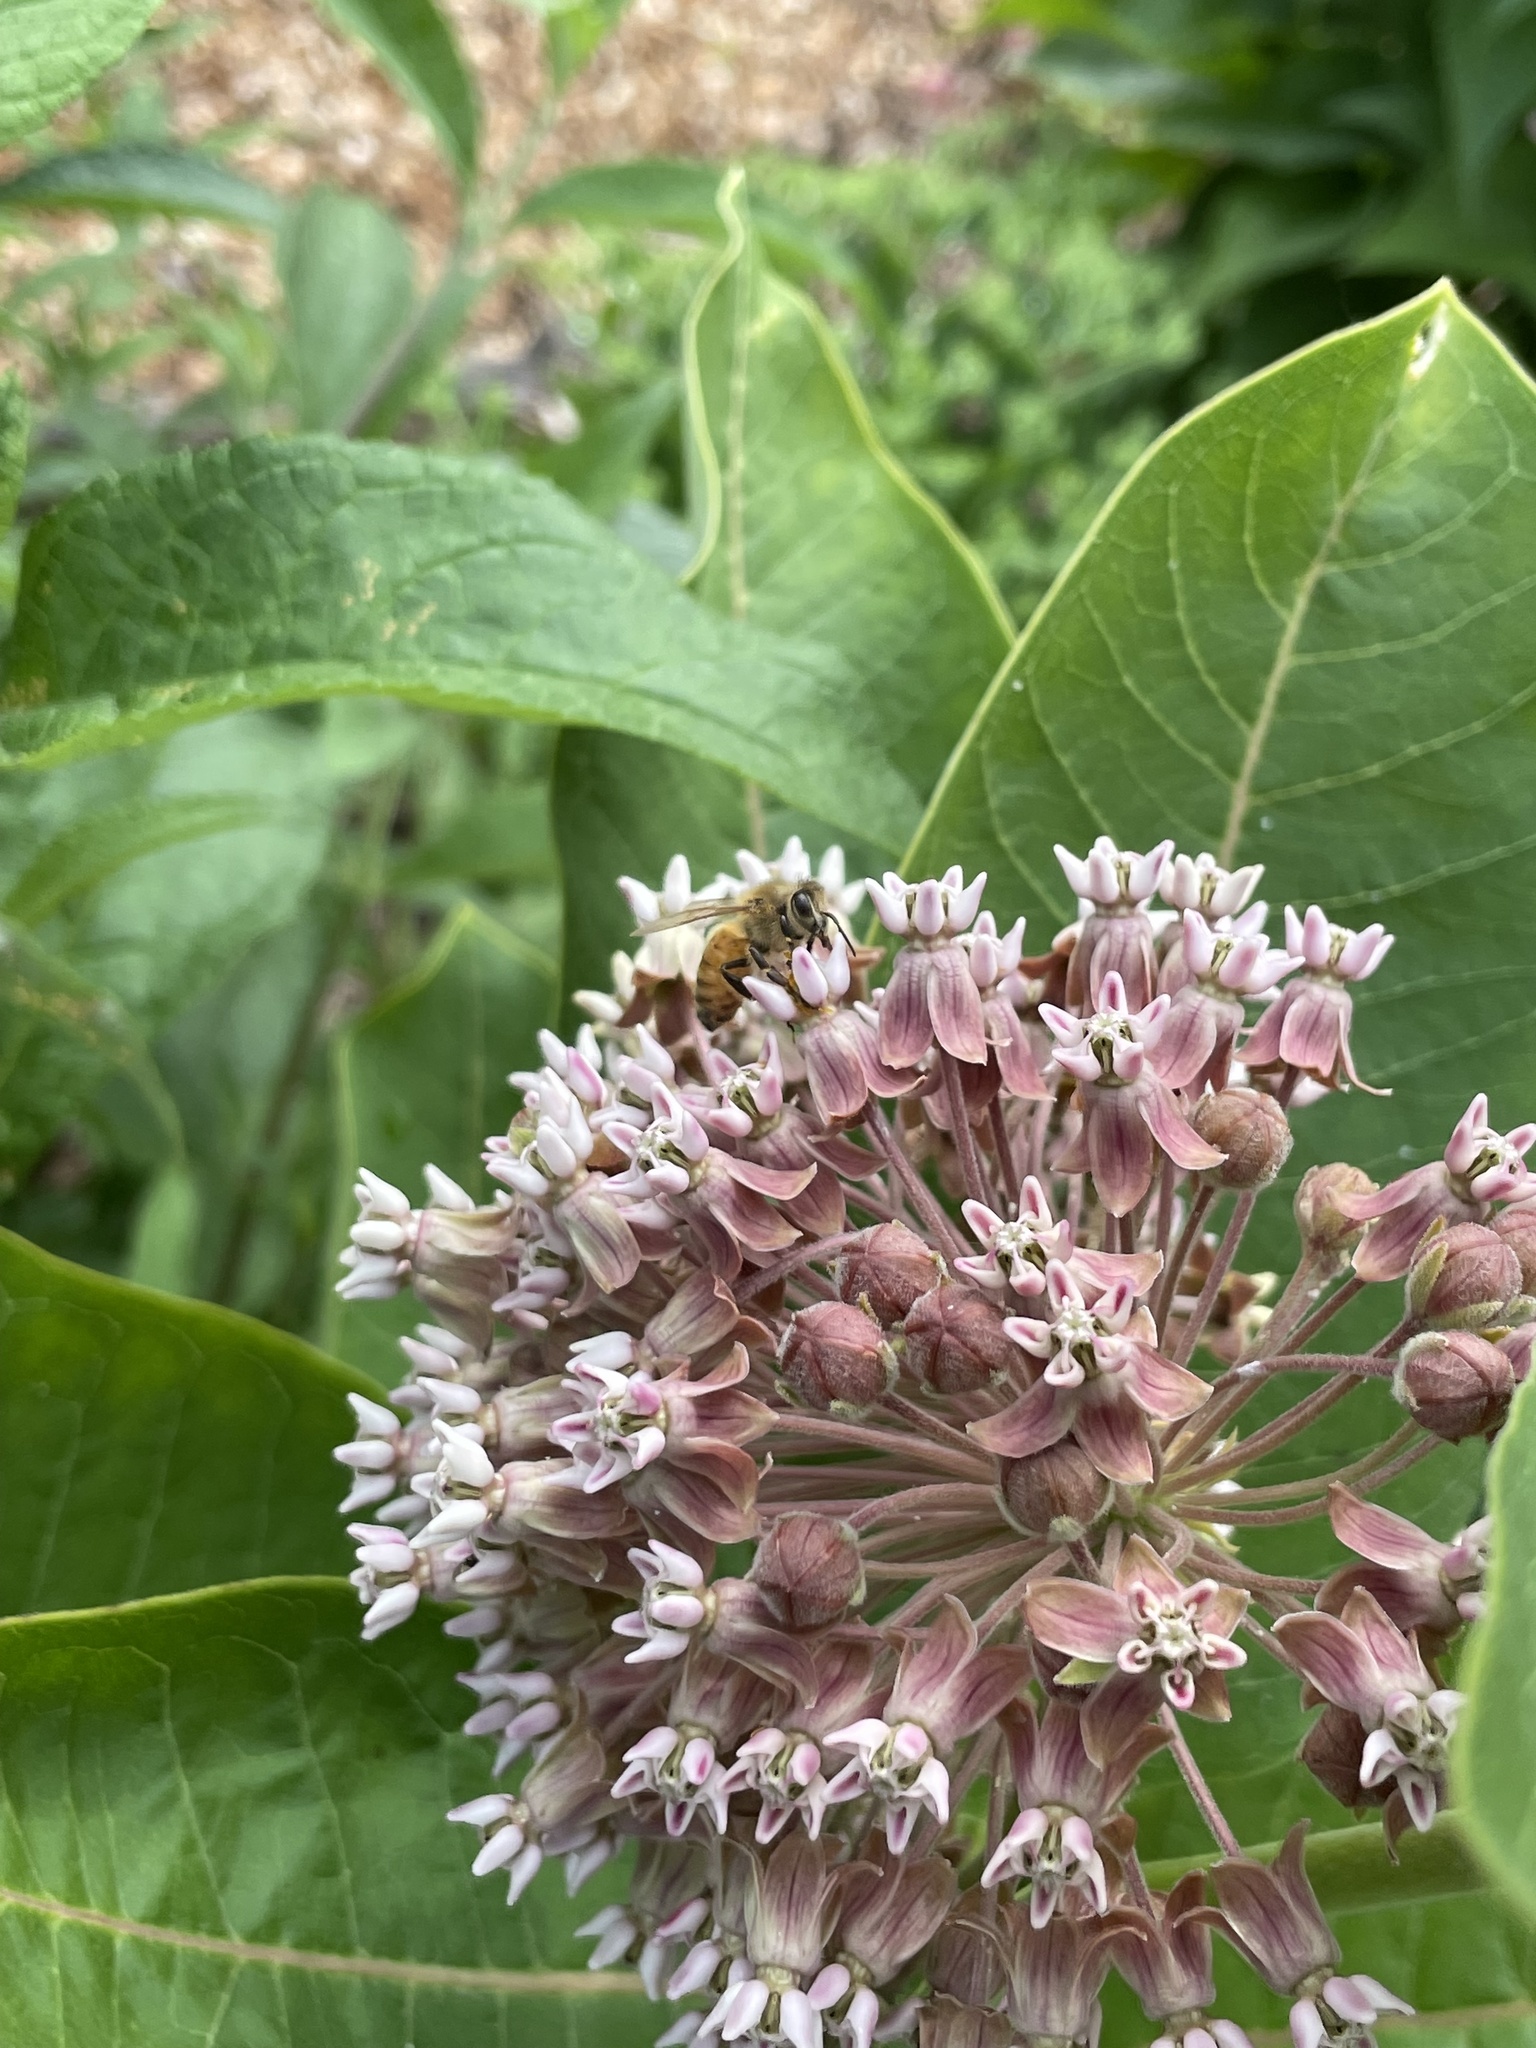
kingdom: Animalia
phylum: Arthropoda
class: Insecta
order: Hymenoptera
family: Apidae
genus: Apis
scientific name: Apis mellifera
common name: Honey bee
